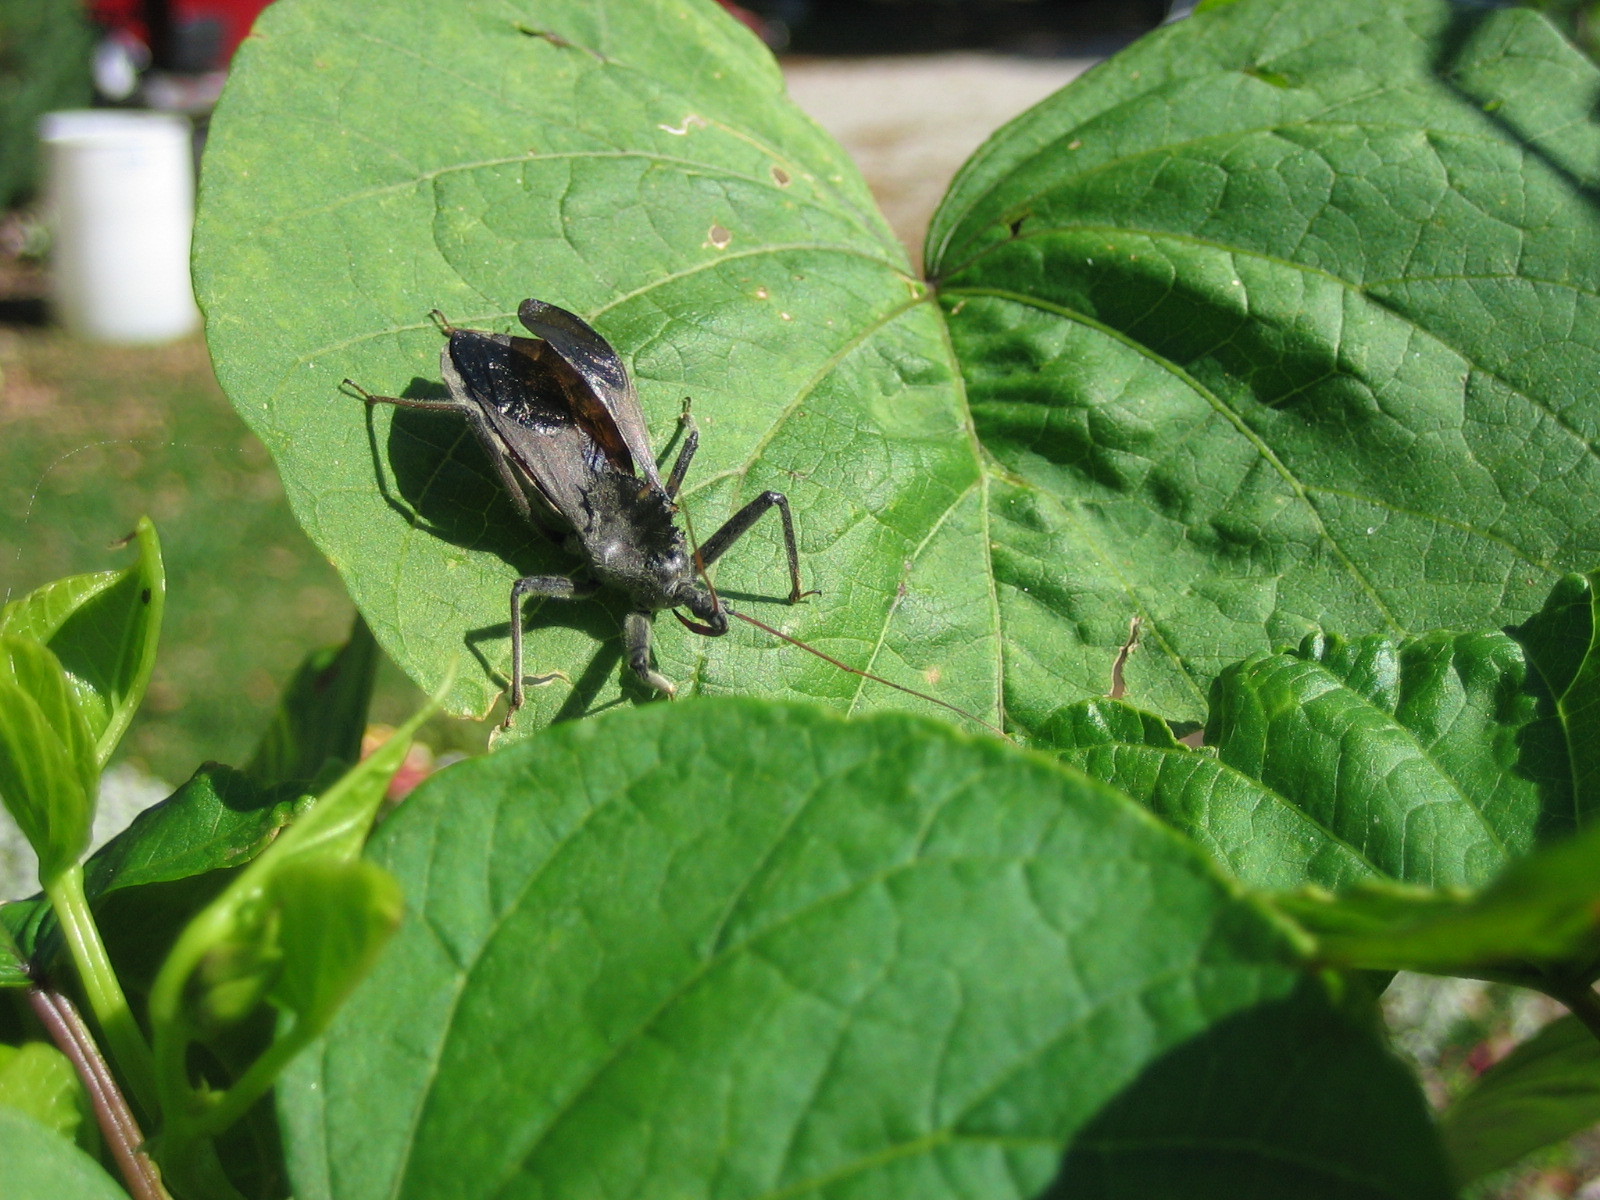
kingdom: Animalia
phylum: Arthropoda
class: Insecta
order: Hemiptera
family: Reduviidae
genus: Arilus
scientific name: Arilus cristatus
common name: North american wheel bug
